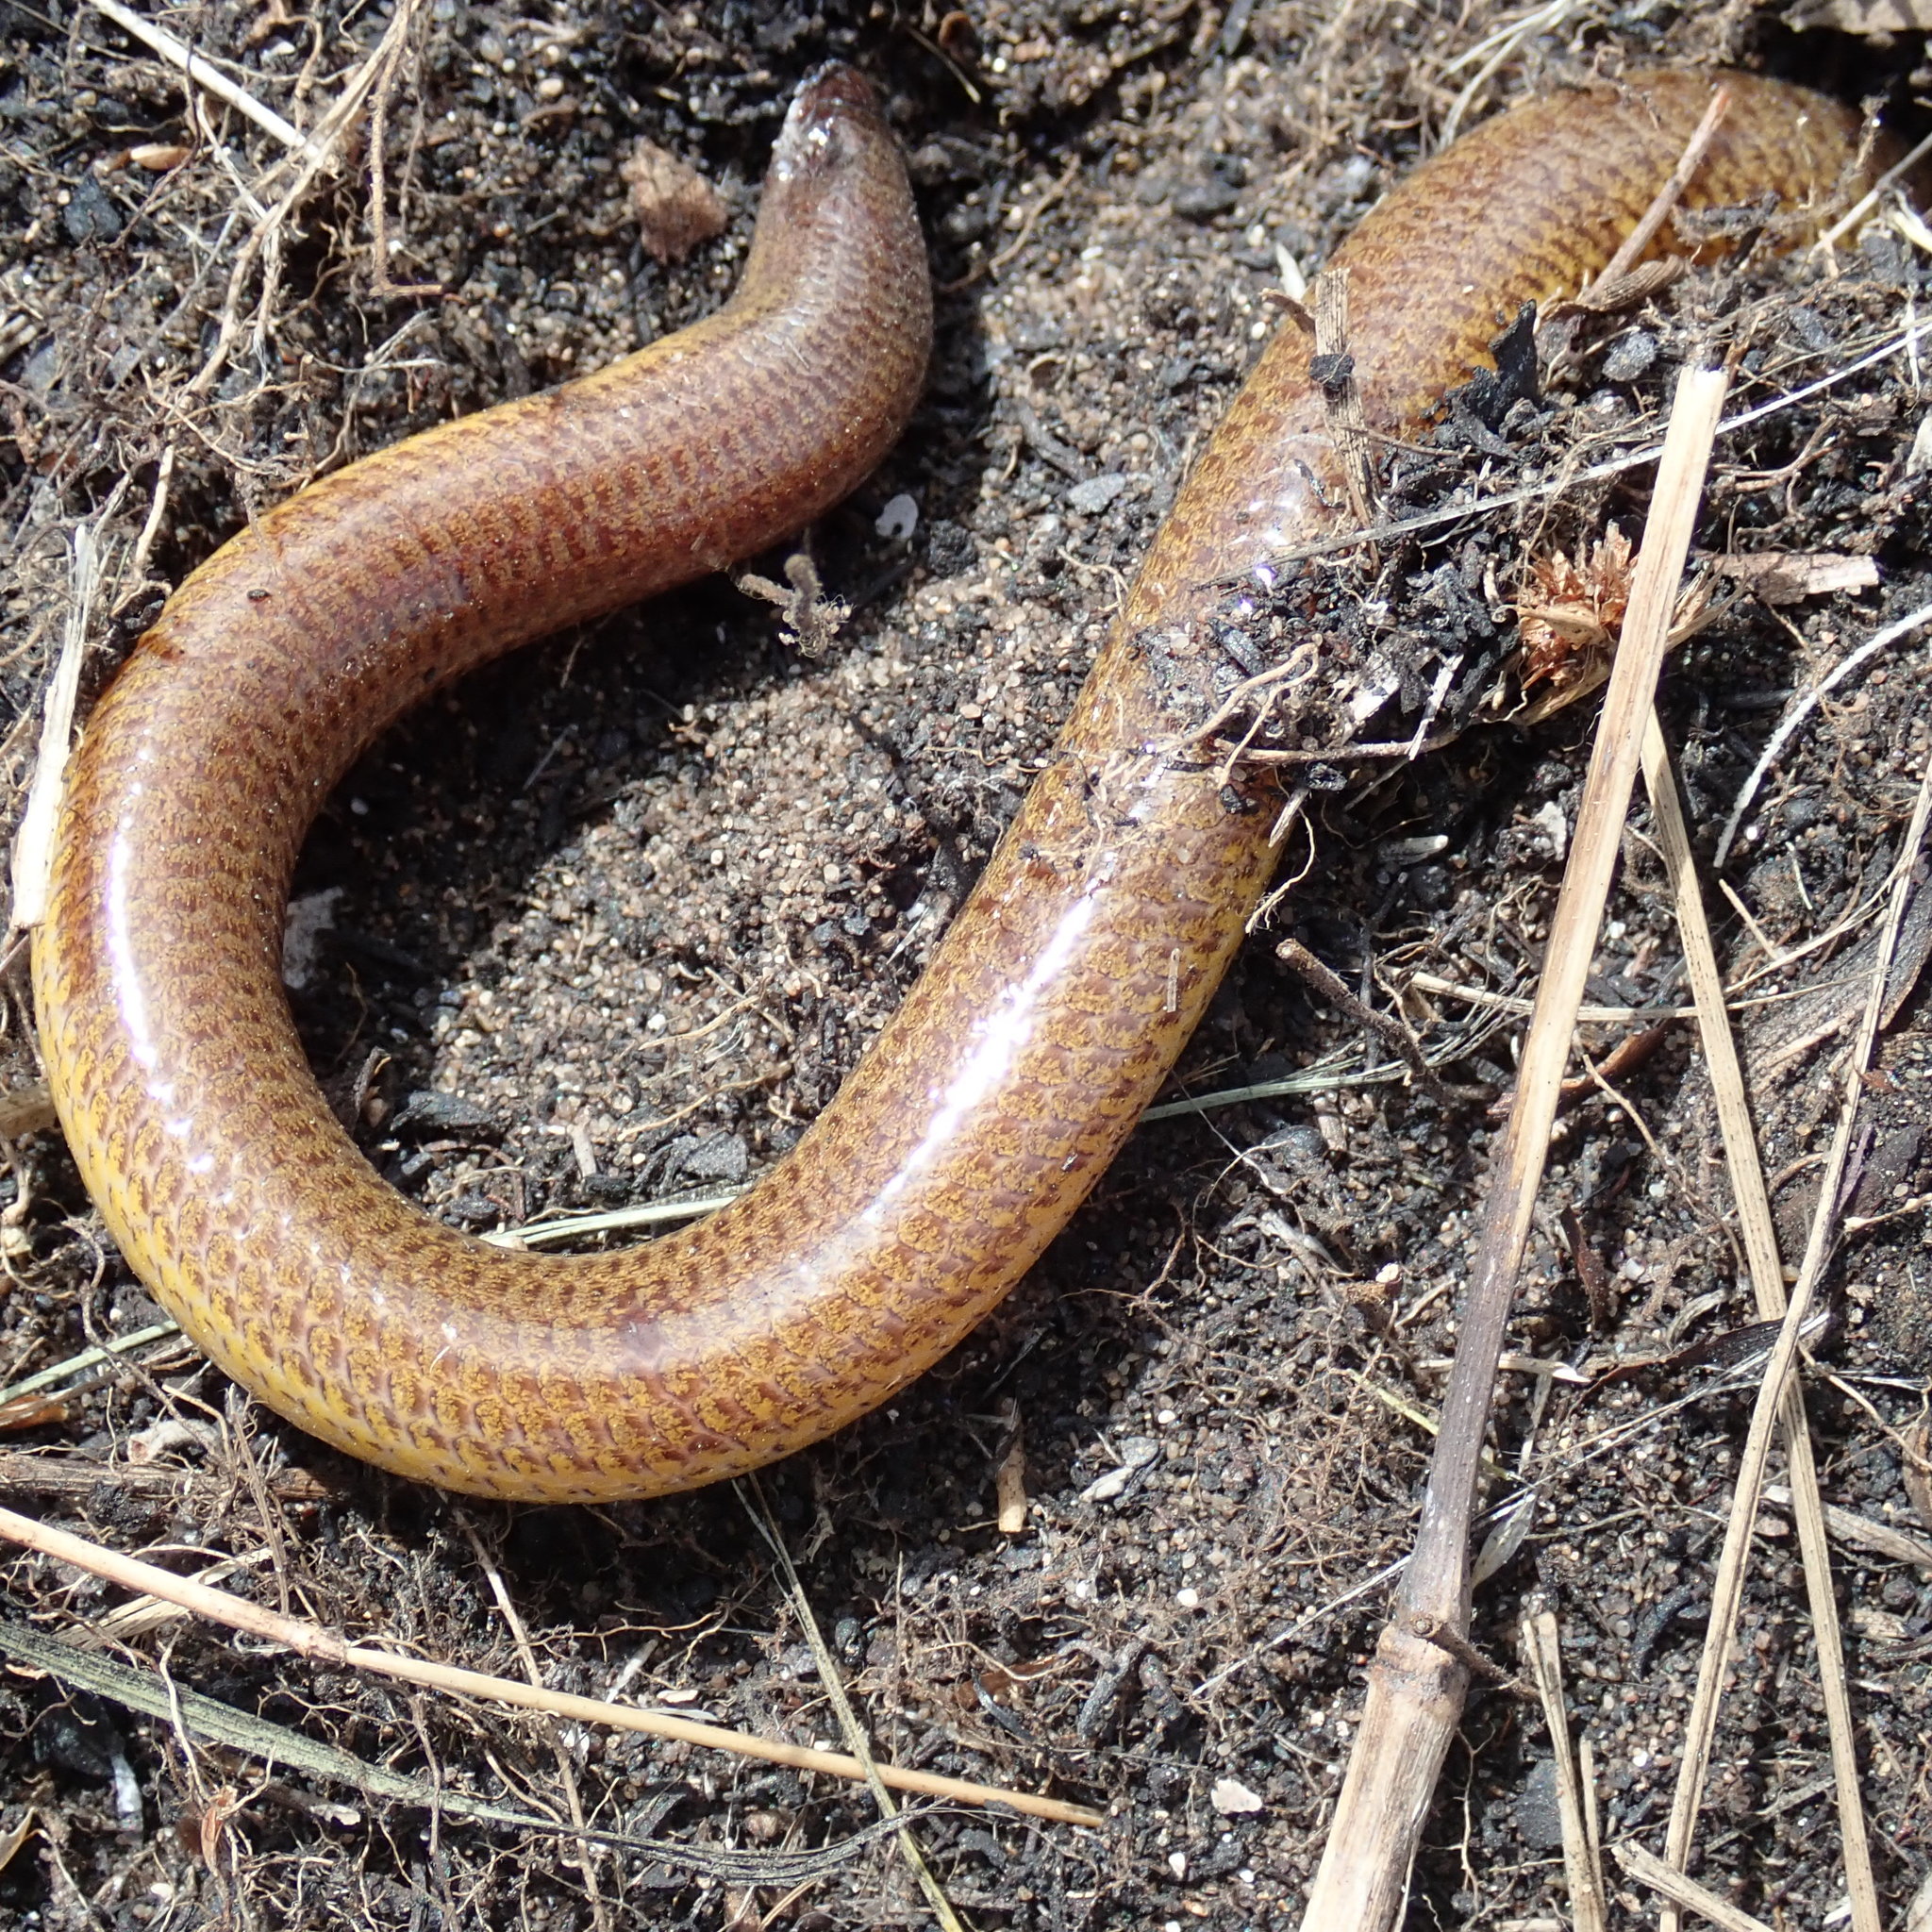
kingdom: Animalia
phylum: Chordata
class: Squamata
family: Scincidae
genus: Acontias
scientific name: Acontias orientalis
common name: Eastern cape legless skink
